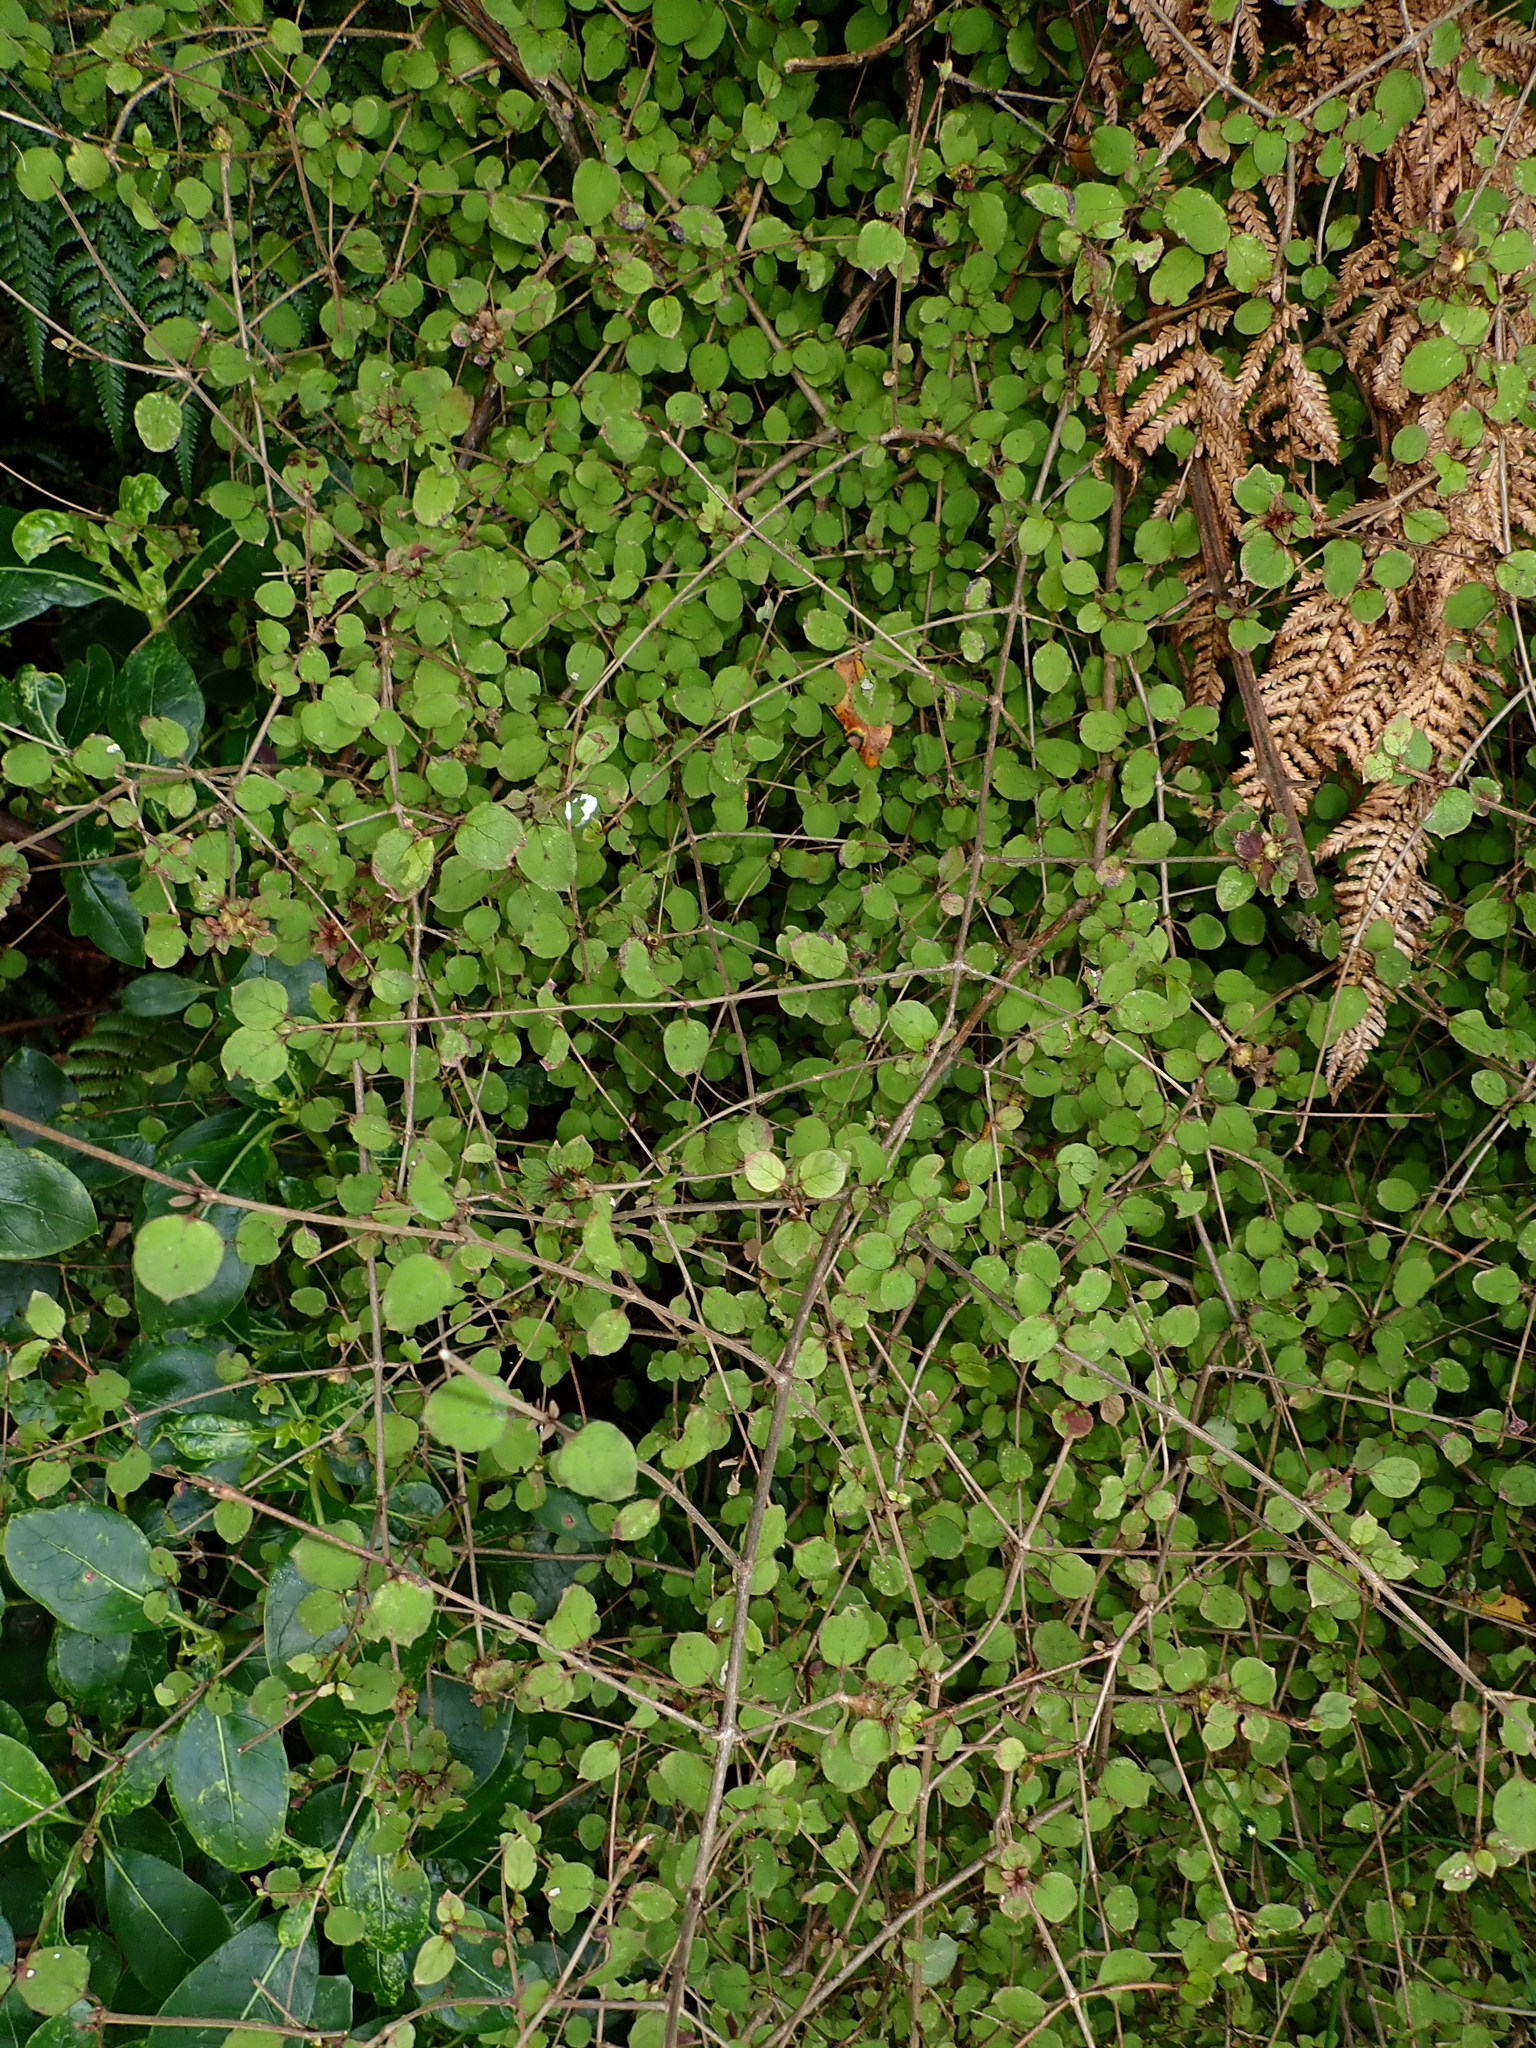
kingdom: Plantae
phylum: Tracheophyta
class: Magnoliopsida
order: Gentianales
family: Rubiaceae
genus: Coprosma
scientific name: Coprosma rotundifolia
